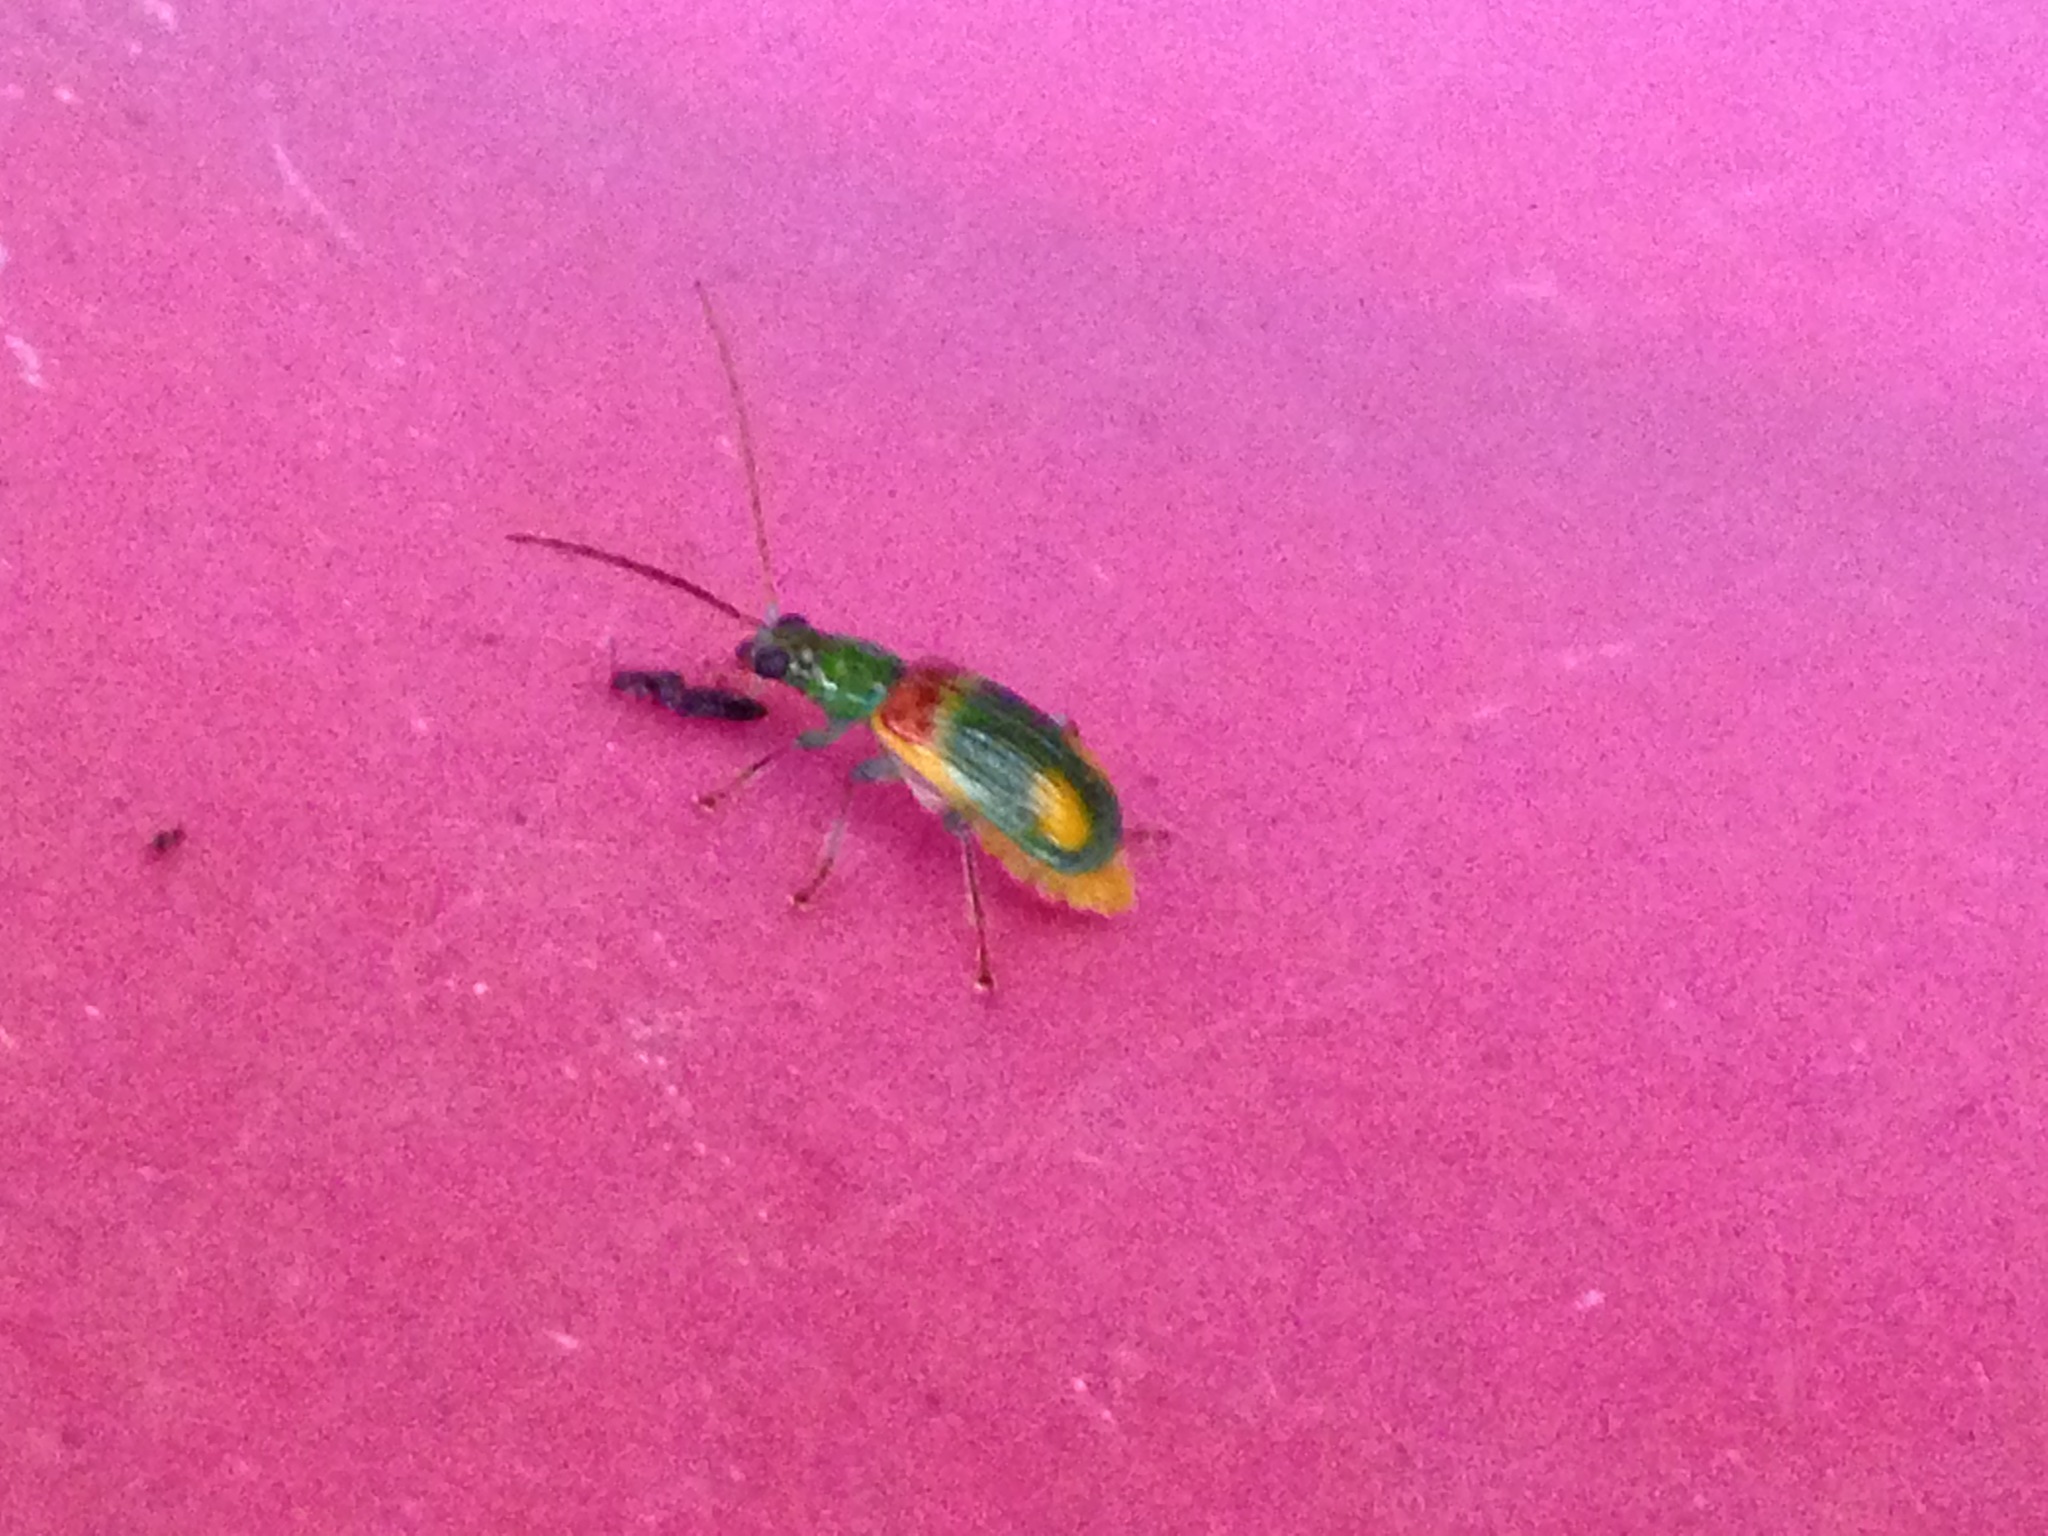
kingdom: Animalia
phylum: Arthropoda
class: Insecta
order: Coleoptera
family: Chrysomelidae
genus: Diabrotica
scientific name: Diabrotica viridula
